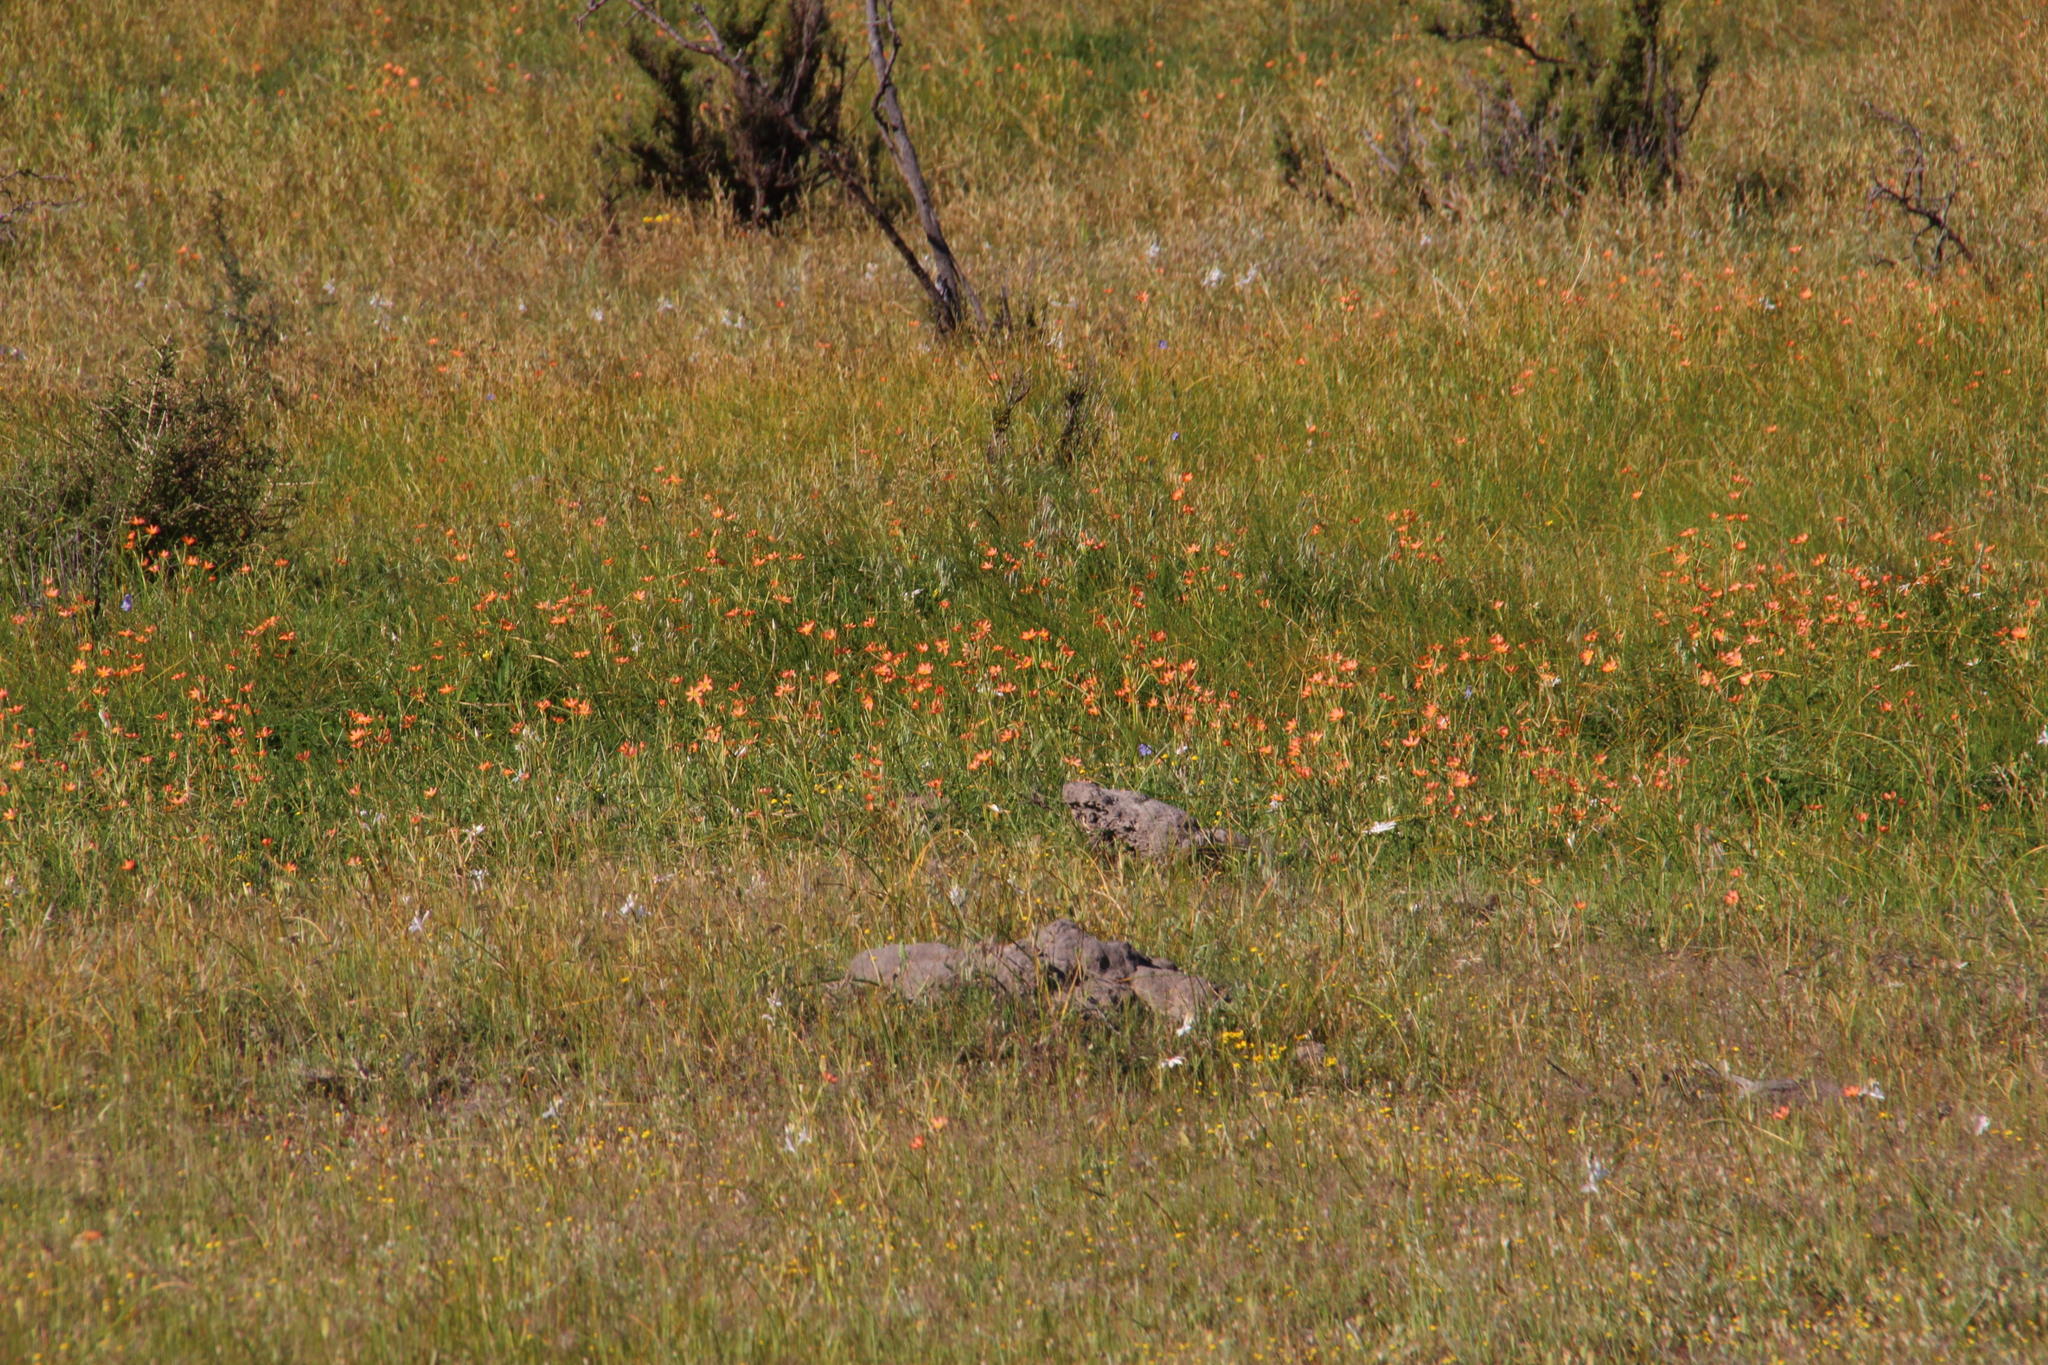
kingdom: Plantae
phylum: Tracheophyta
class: Liliopsida
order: Asparagales
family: Iridaceae
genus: Moraea
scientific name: Moraea miniata
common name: Two-leaf cape-tulip
